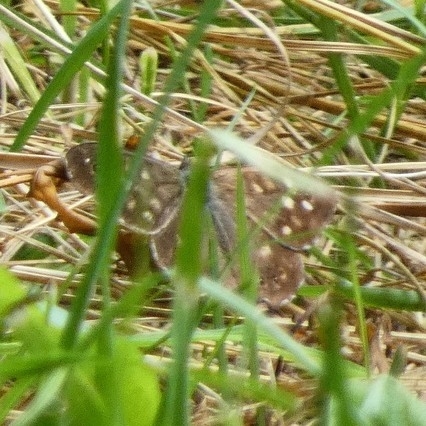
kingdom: Animalia
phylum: Arthropoda
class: Insecta
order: Lepidoptera
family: Nymphalidae
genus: Pararge
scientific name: Pararge aegeria
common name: Speckled wood
